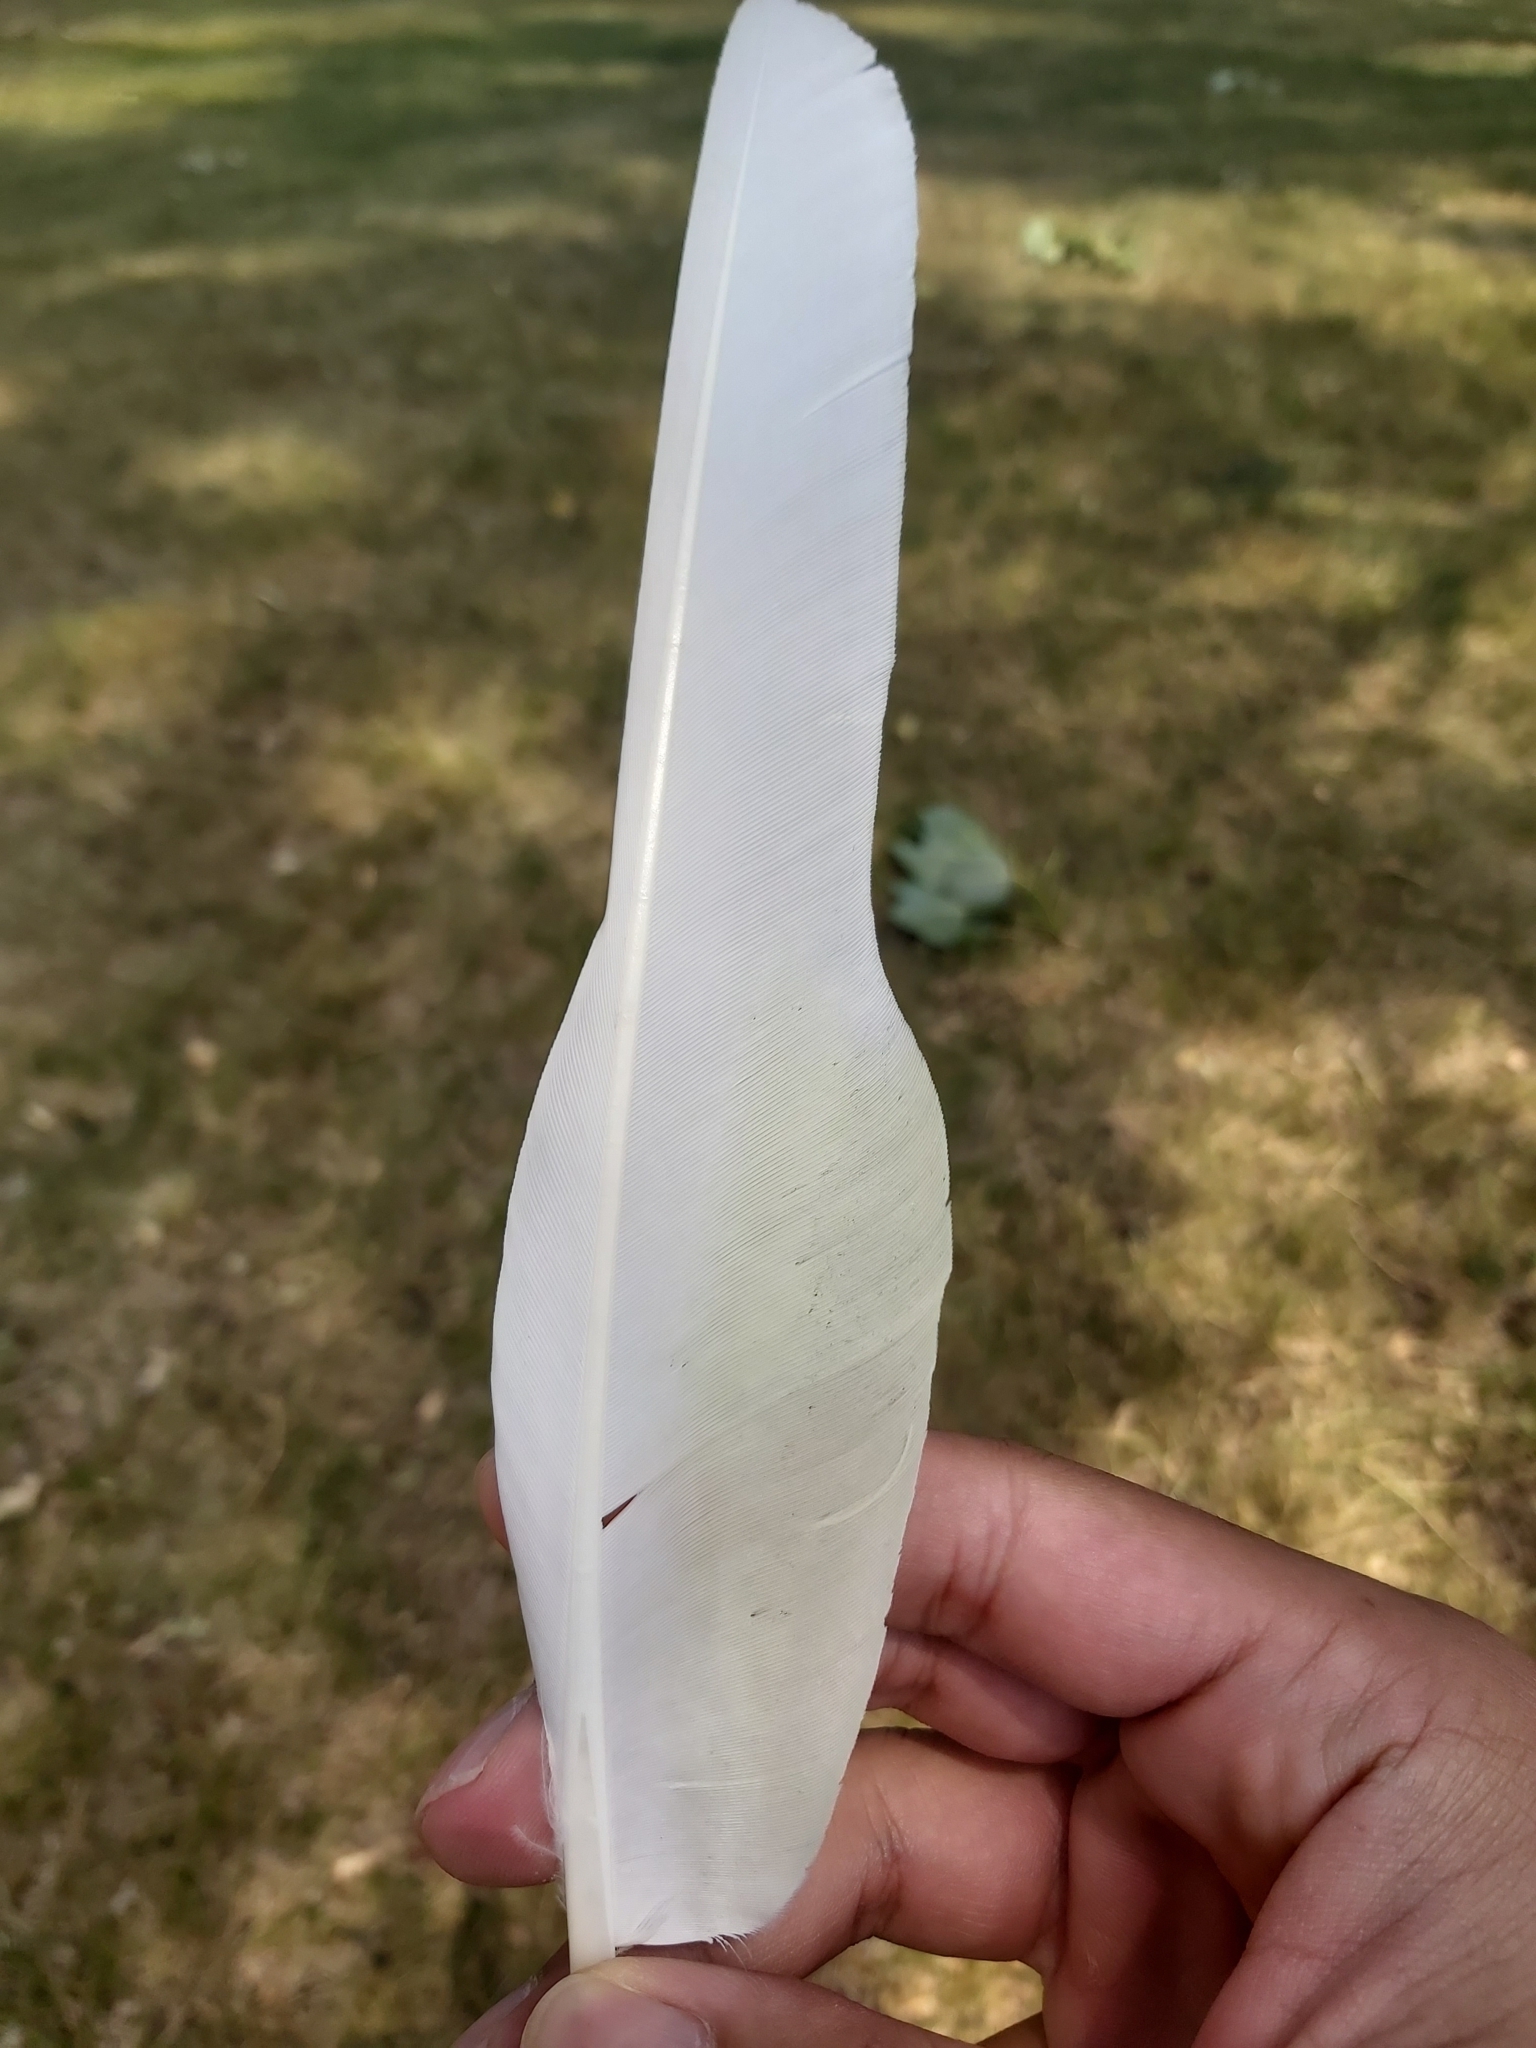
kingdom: Animalia
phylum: Chordata
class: Aves
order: Psittaciformes
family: Psittacidae
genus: Cacatua
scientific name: Cacatua galerita
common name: Sulphur-crested cockatoo
